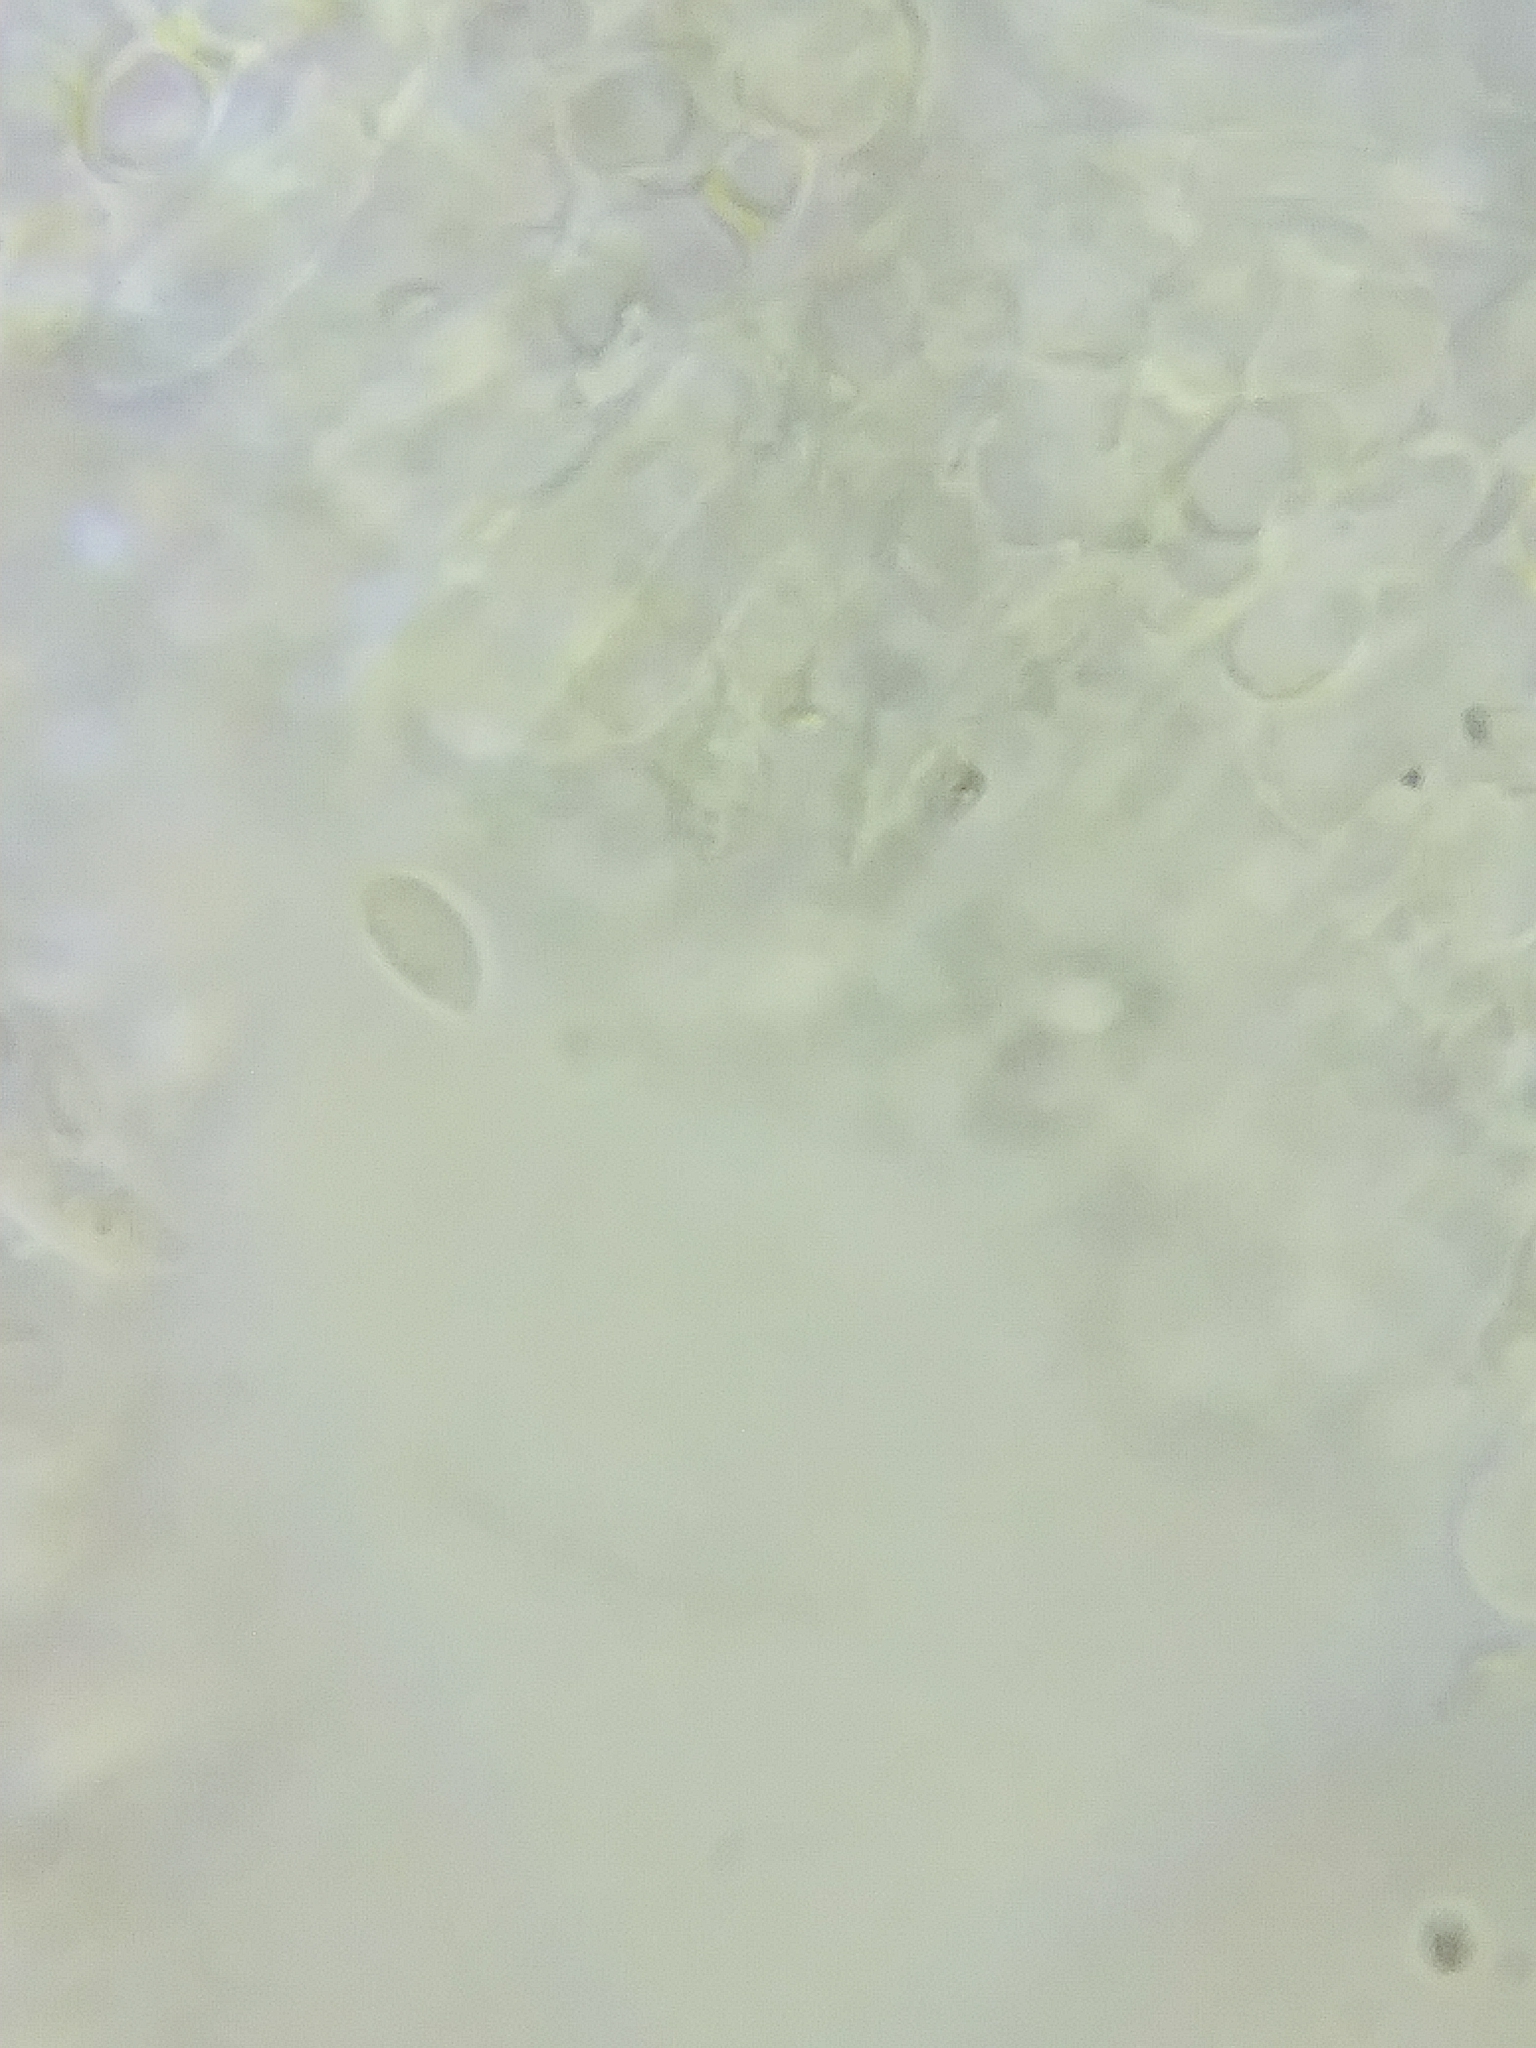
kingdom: Fungi
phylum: Basidiomycota
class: Agaricomycetes
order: Agaricales
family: Physalacriaceae
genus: Strobilurus
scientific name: Strobilurus conigenoides
